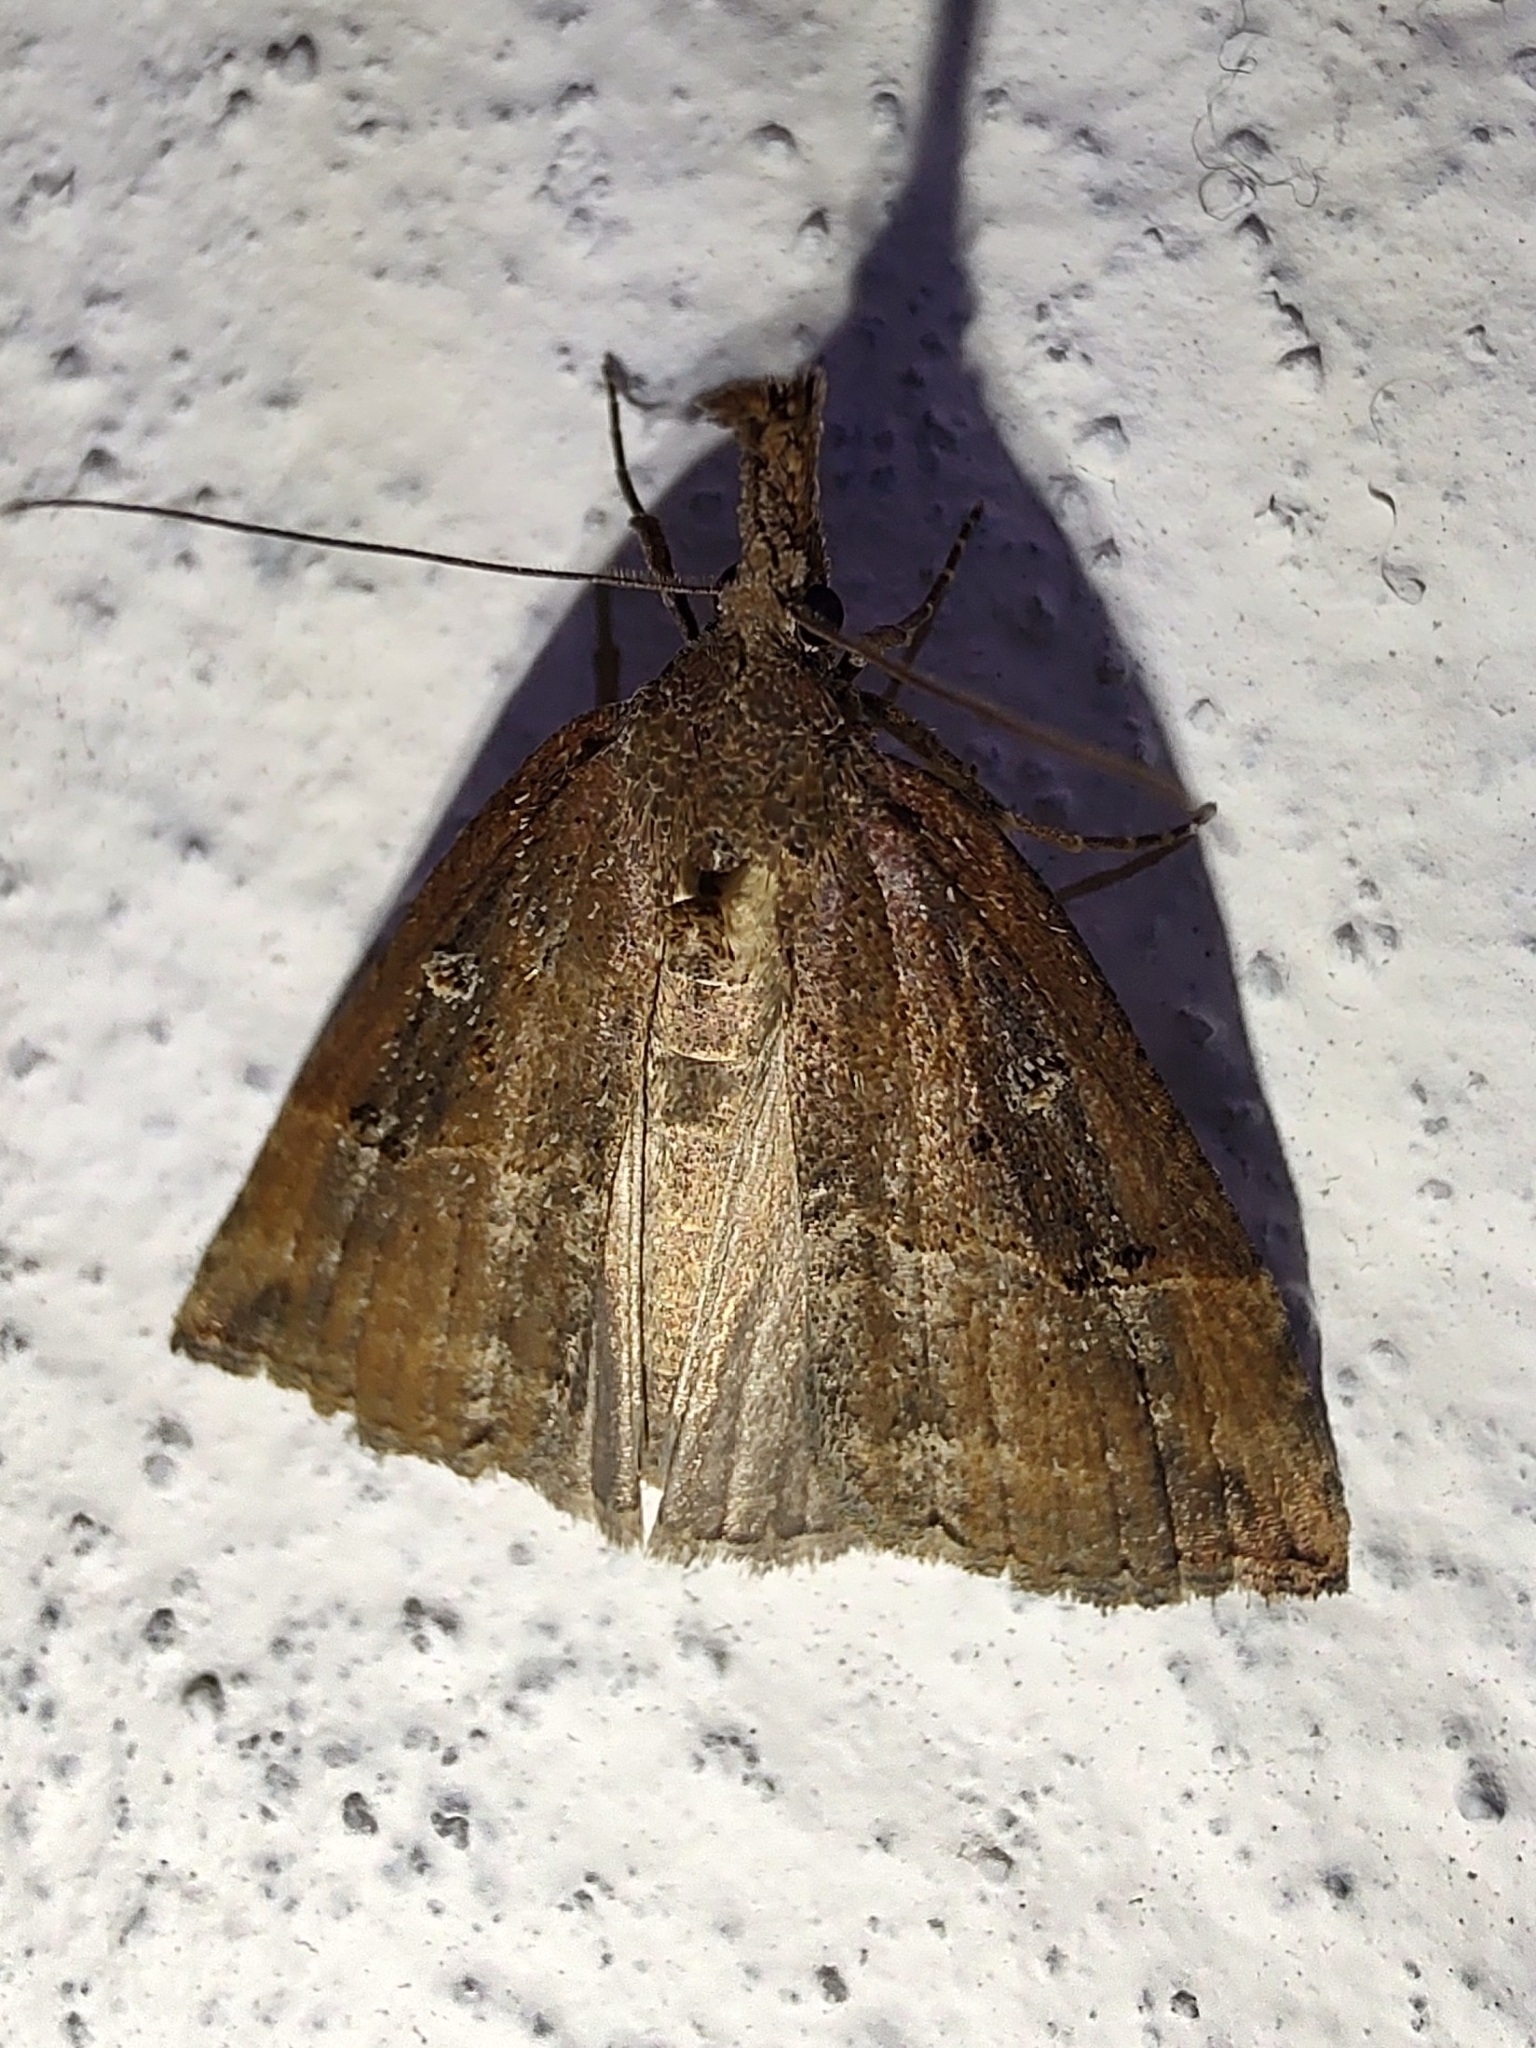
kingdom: Animalia
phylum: Arthropoda
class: Insecta
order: Lepidoptera
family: Erebidae
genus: Hypena
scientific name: Hypena rostralis
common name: Buttoned snout
